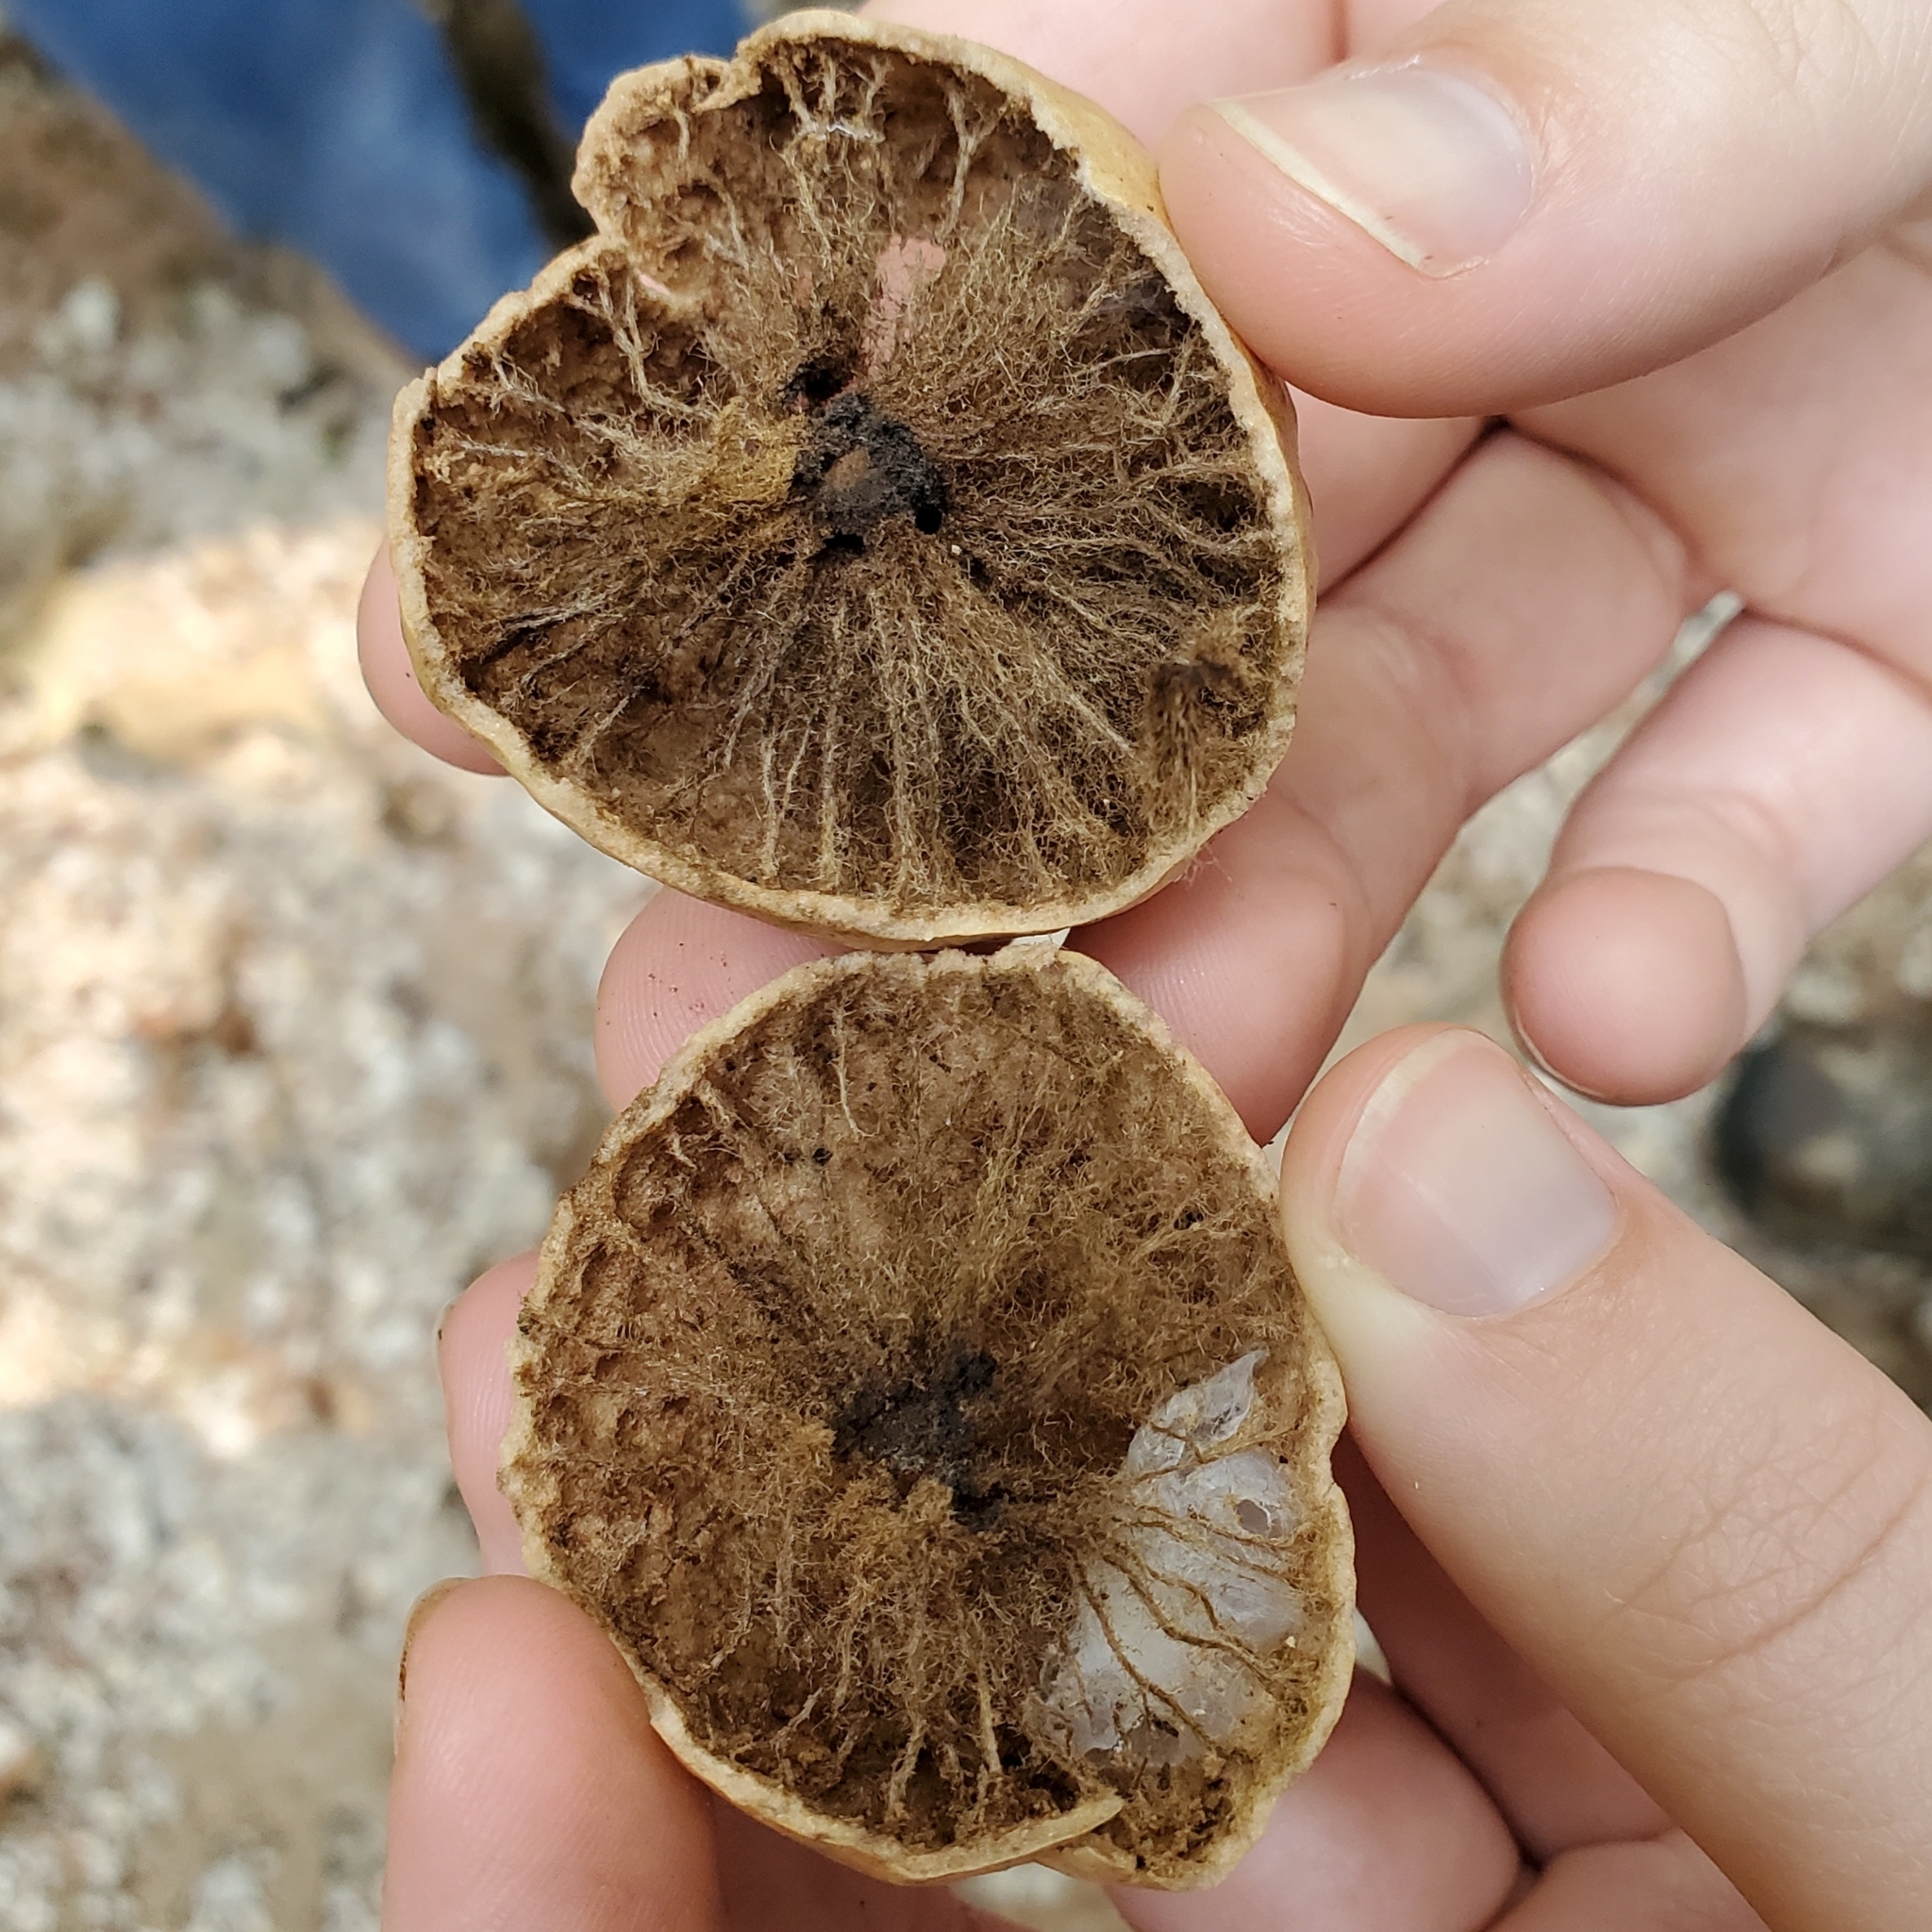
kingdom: Animalia
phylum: Arthropoda
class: Insecta
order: Hymenoptera
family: Cynipidae
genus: Amphibolips
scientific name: Amphibolips
